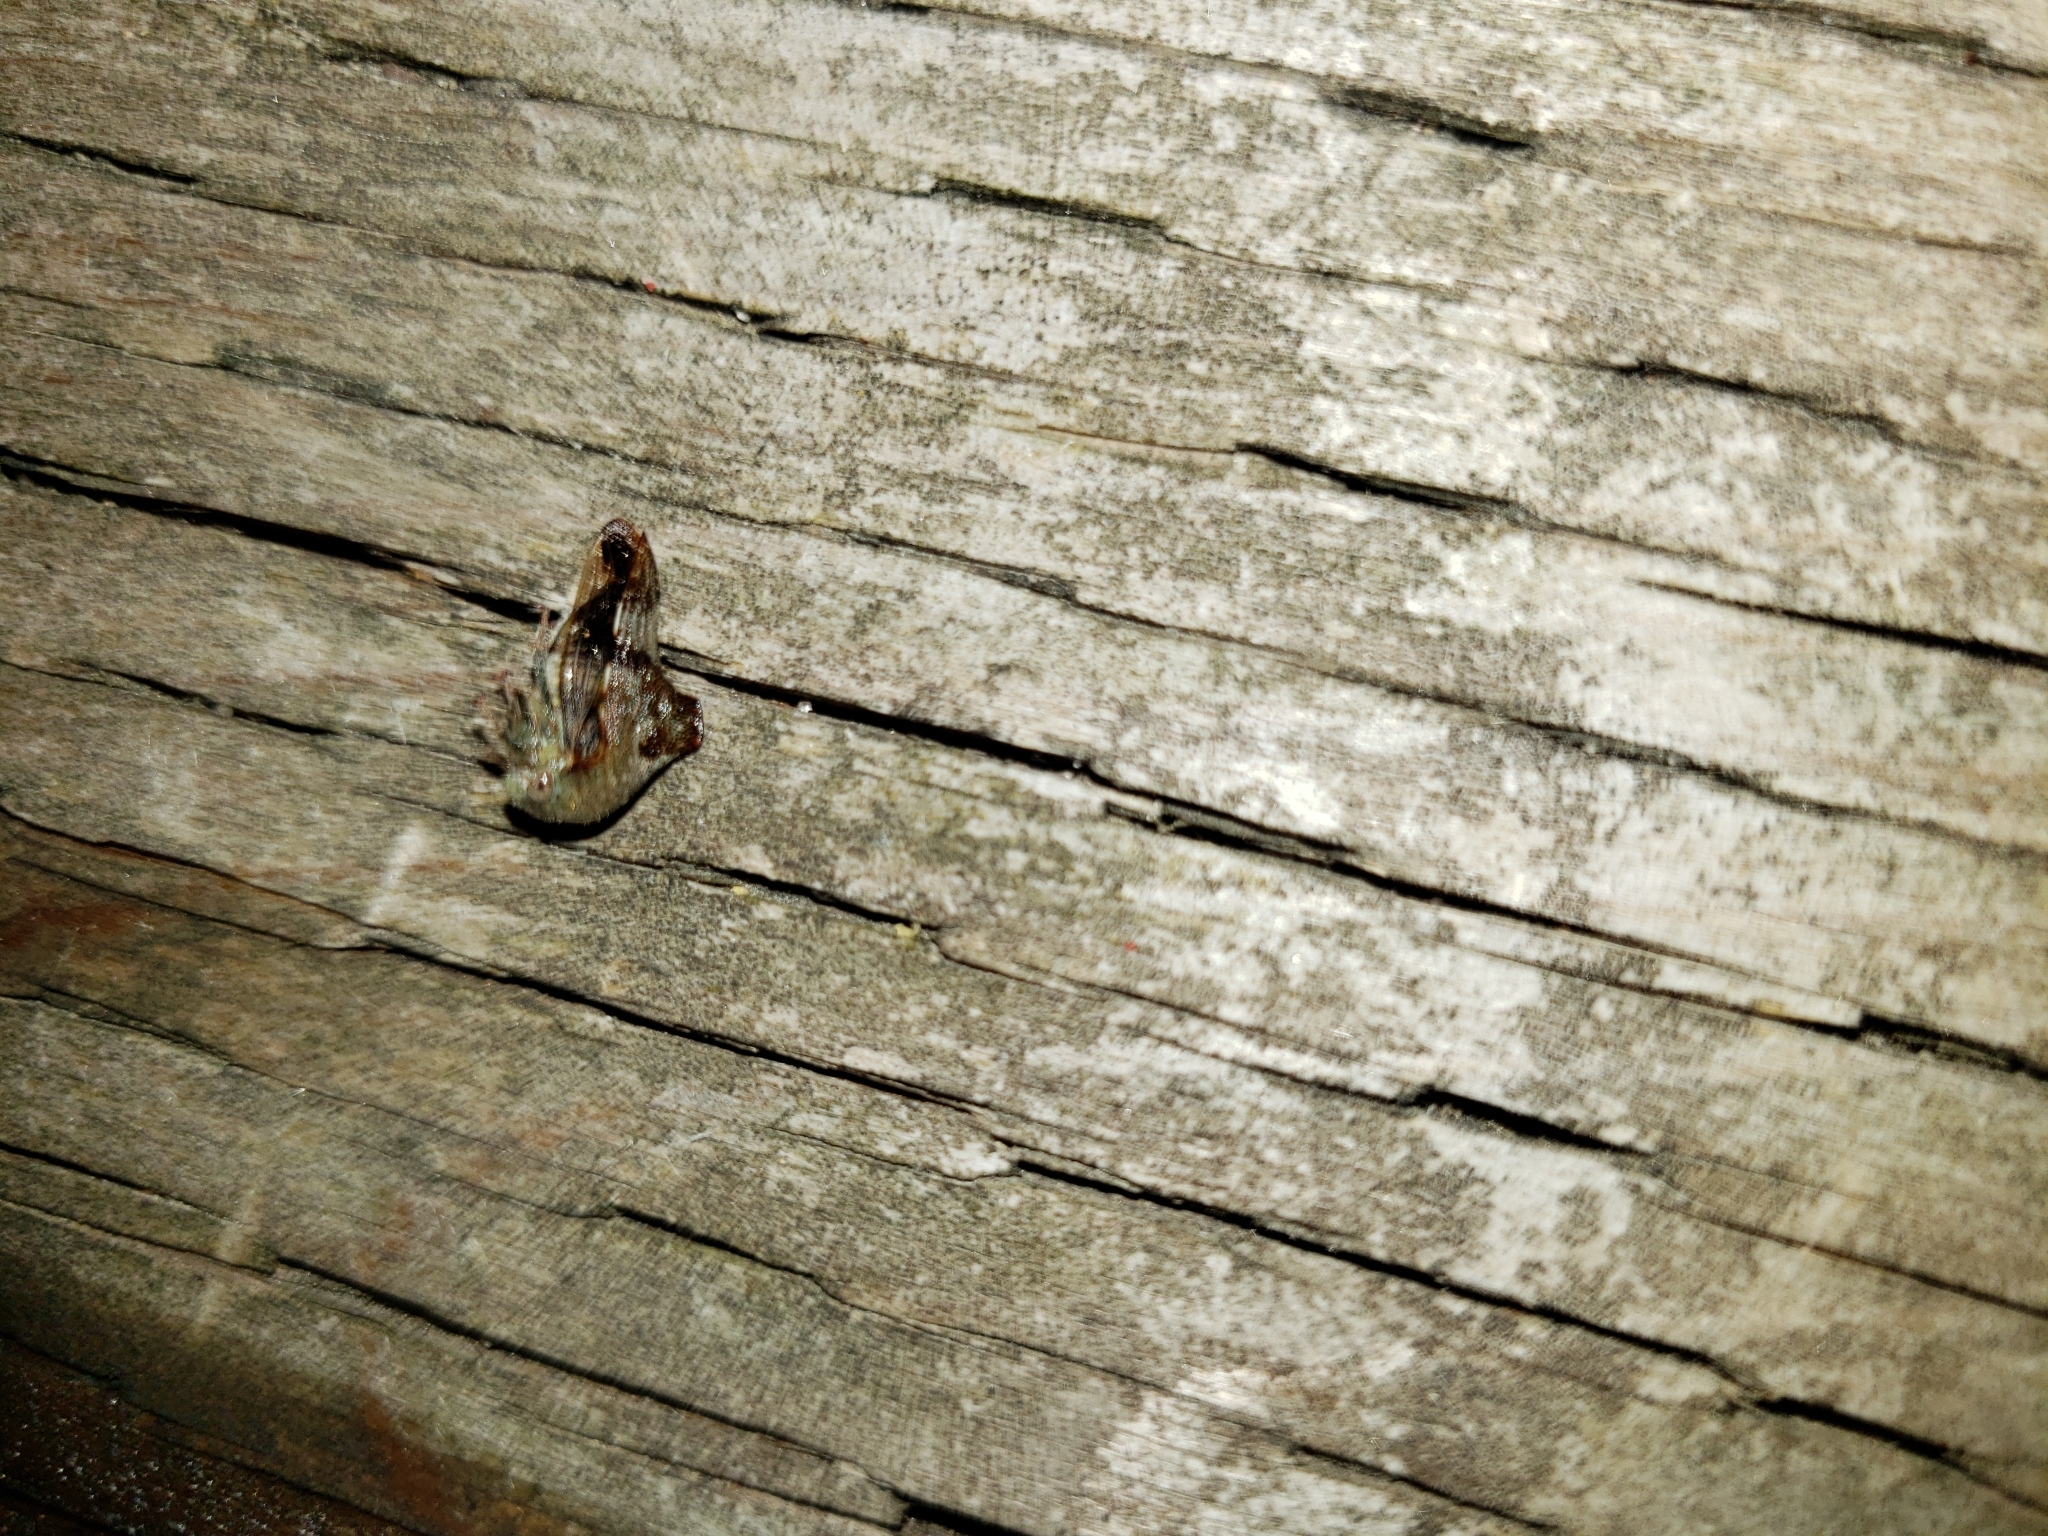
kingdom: Animalia
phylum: Arthropoda
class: Insecta
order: Hemiptera
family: Membracidae
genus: Telamona
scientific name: Telamona decorata
